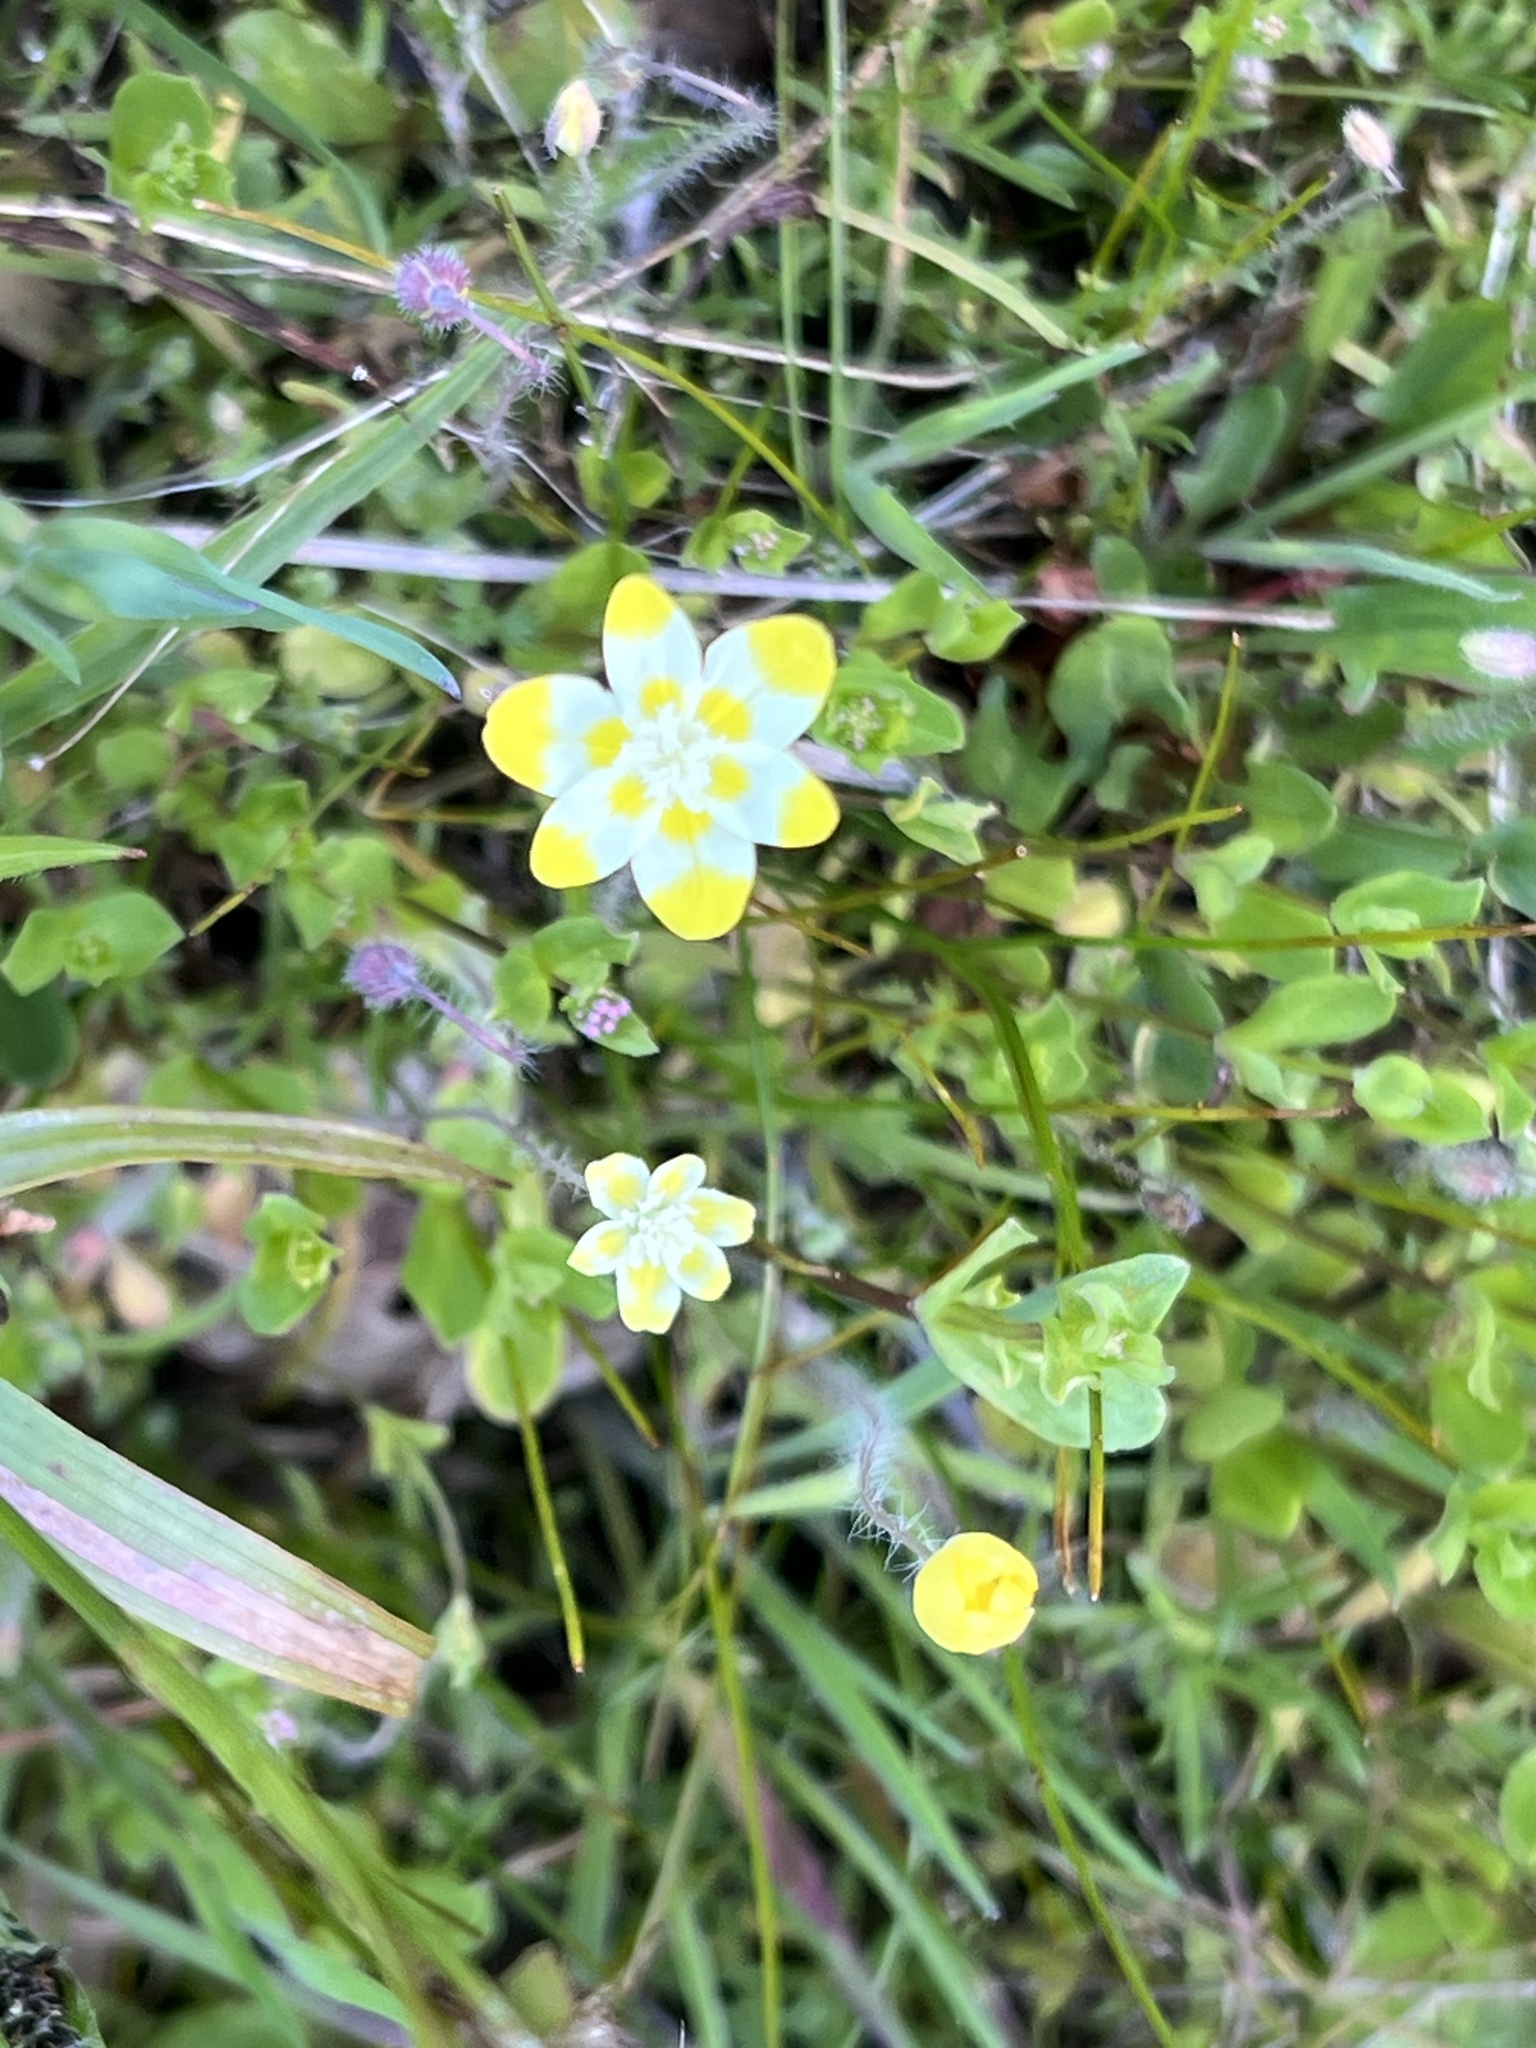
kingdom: Plantae
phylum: Tracheophyta
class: Magnoliopsida
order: Ranunculales
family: Papaveraceae
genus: Platystemon
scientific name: Platystemon californicus
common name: Cream-cups
